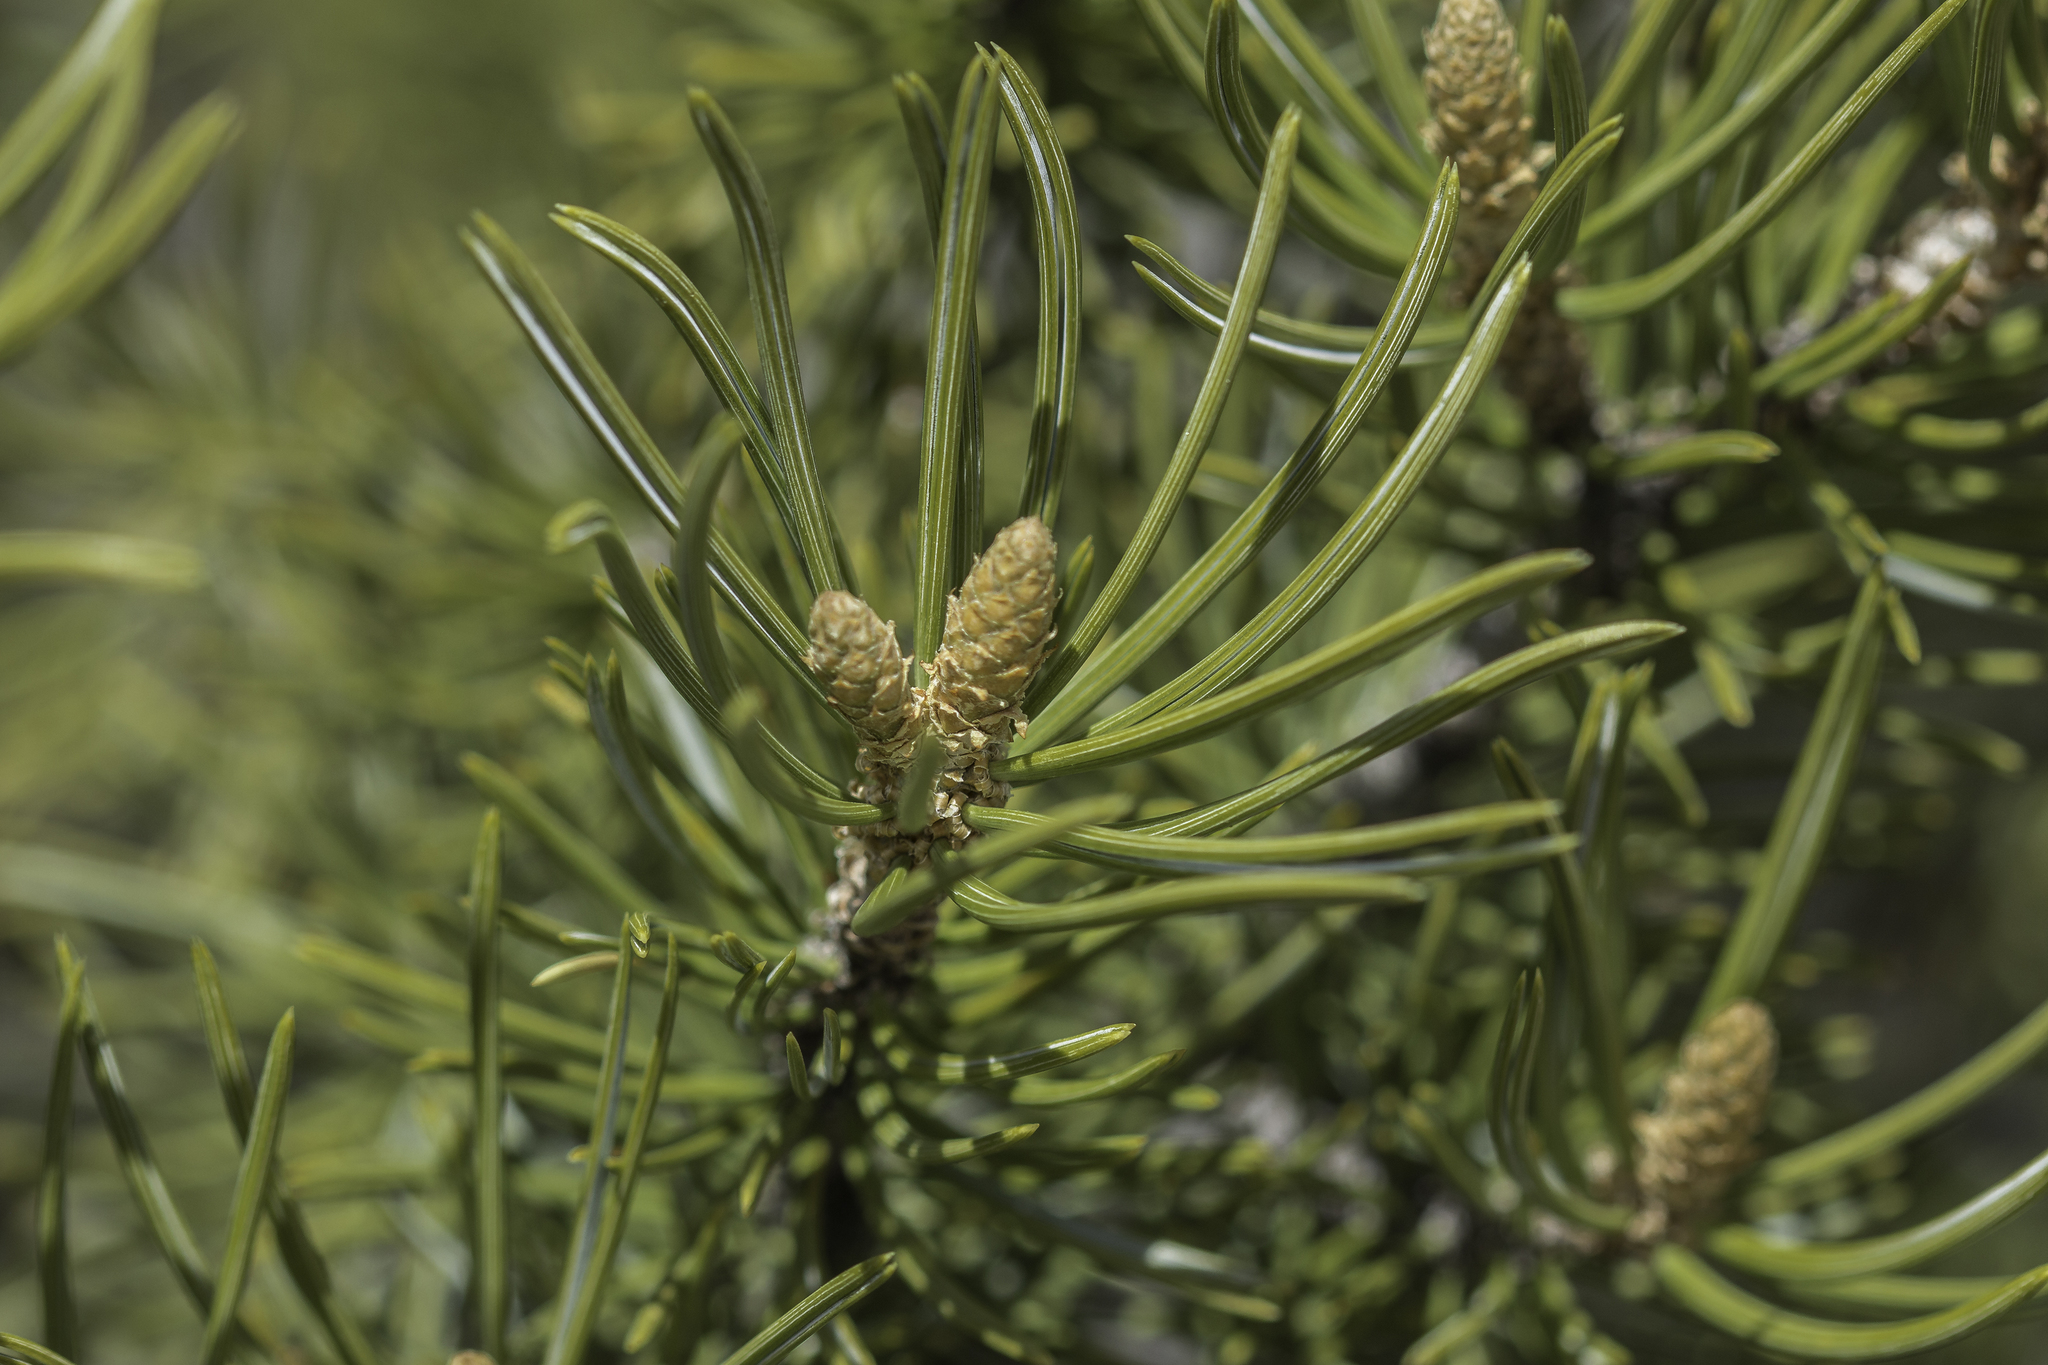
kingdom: Plantae
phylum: Tracheophyta
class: Pinopsida
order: Pinales
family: Pinaceae
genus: Pinus
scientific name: Pinus edulis
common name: Colorado pinyon
